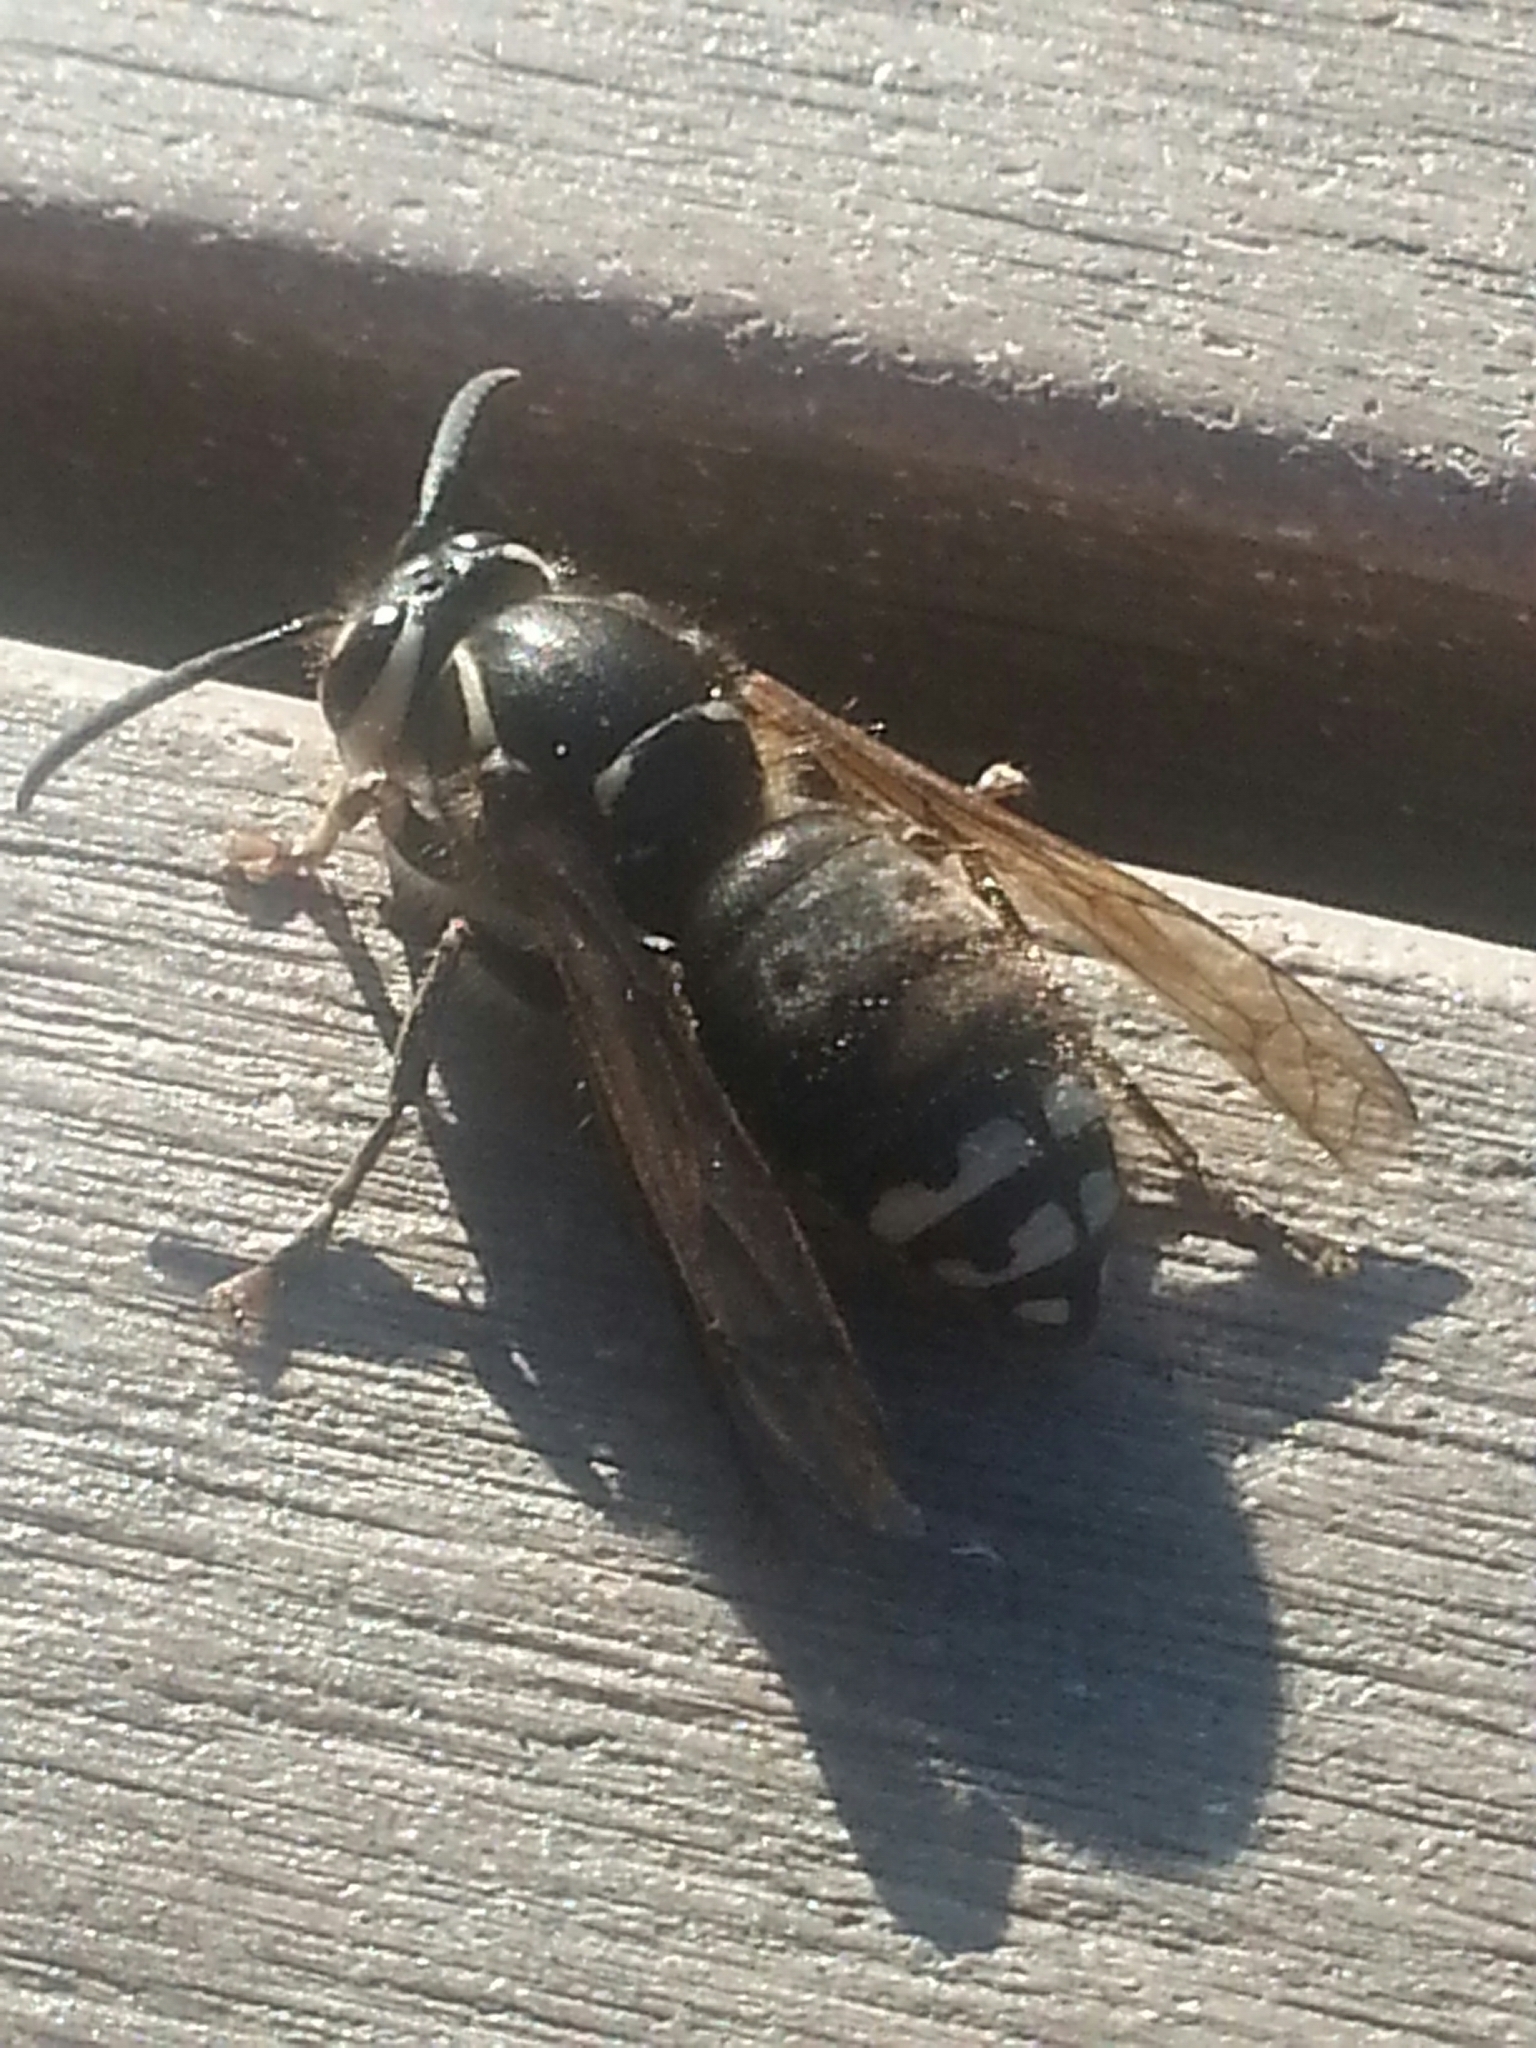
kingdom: Animalia
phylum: Arthropoda
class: Insecta
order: Hymenoptera
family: Vespidae
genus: Dolichovespula
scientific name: Dolichovespula maculata
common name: Bald-faced hornet
